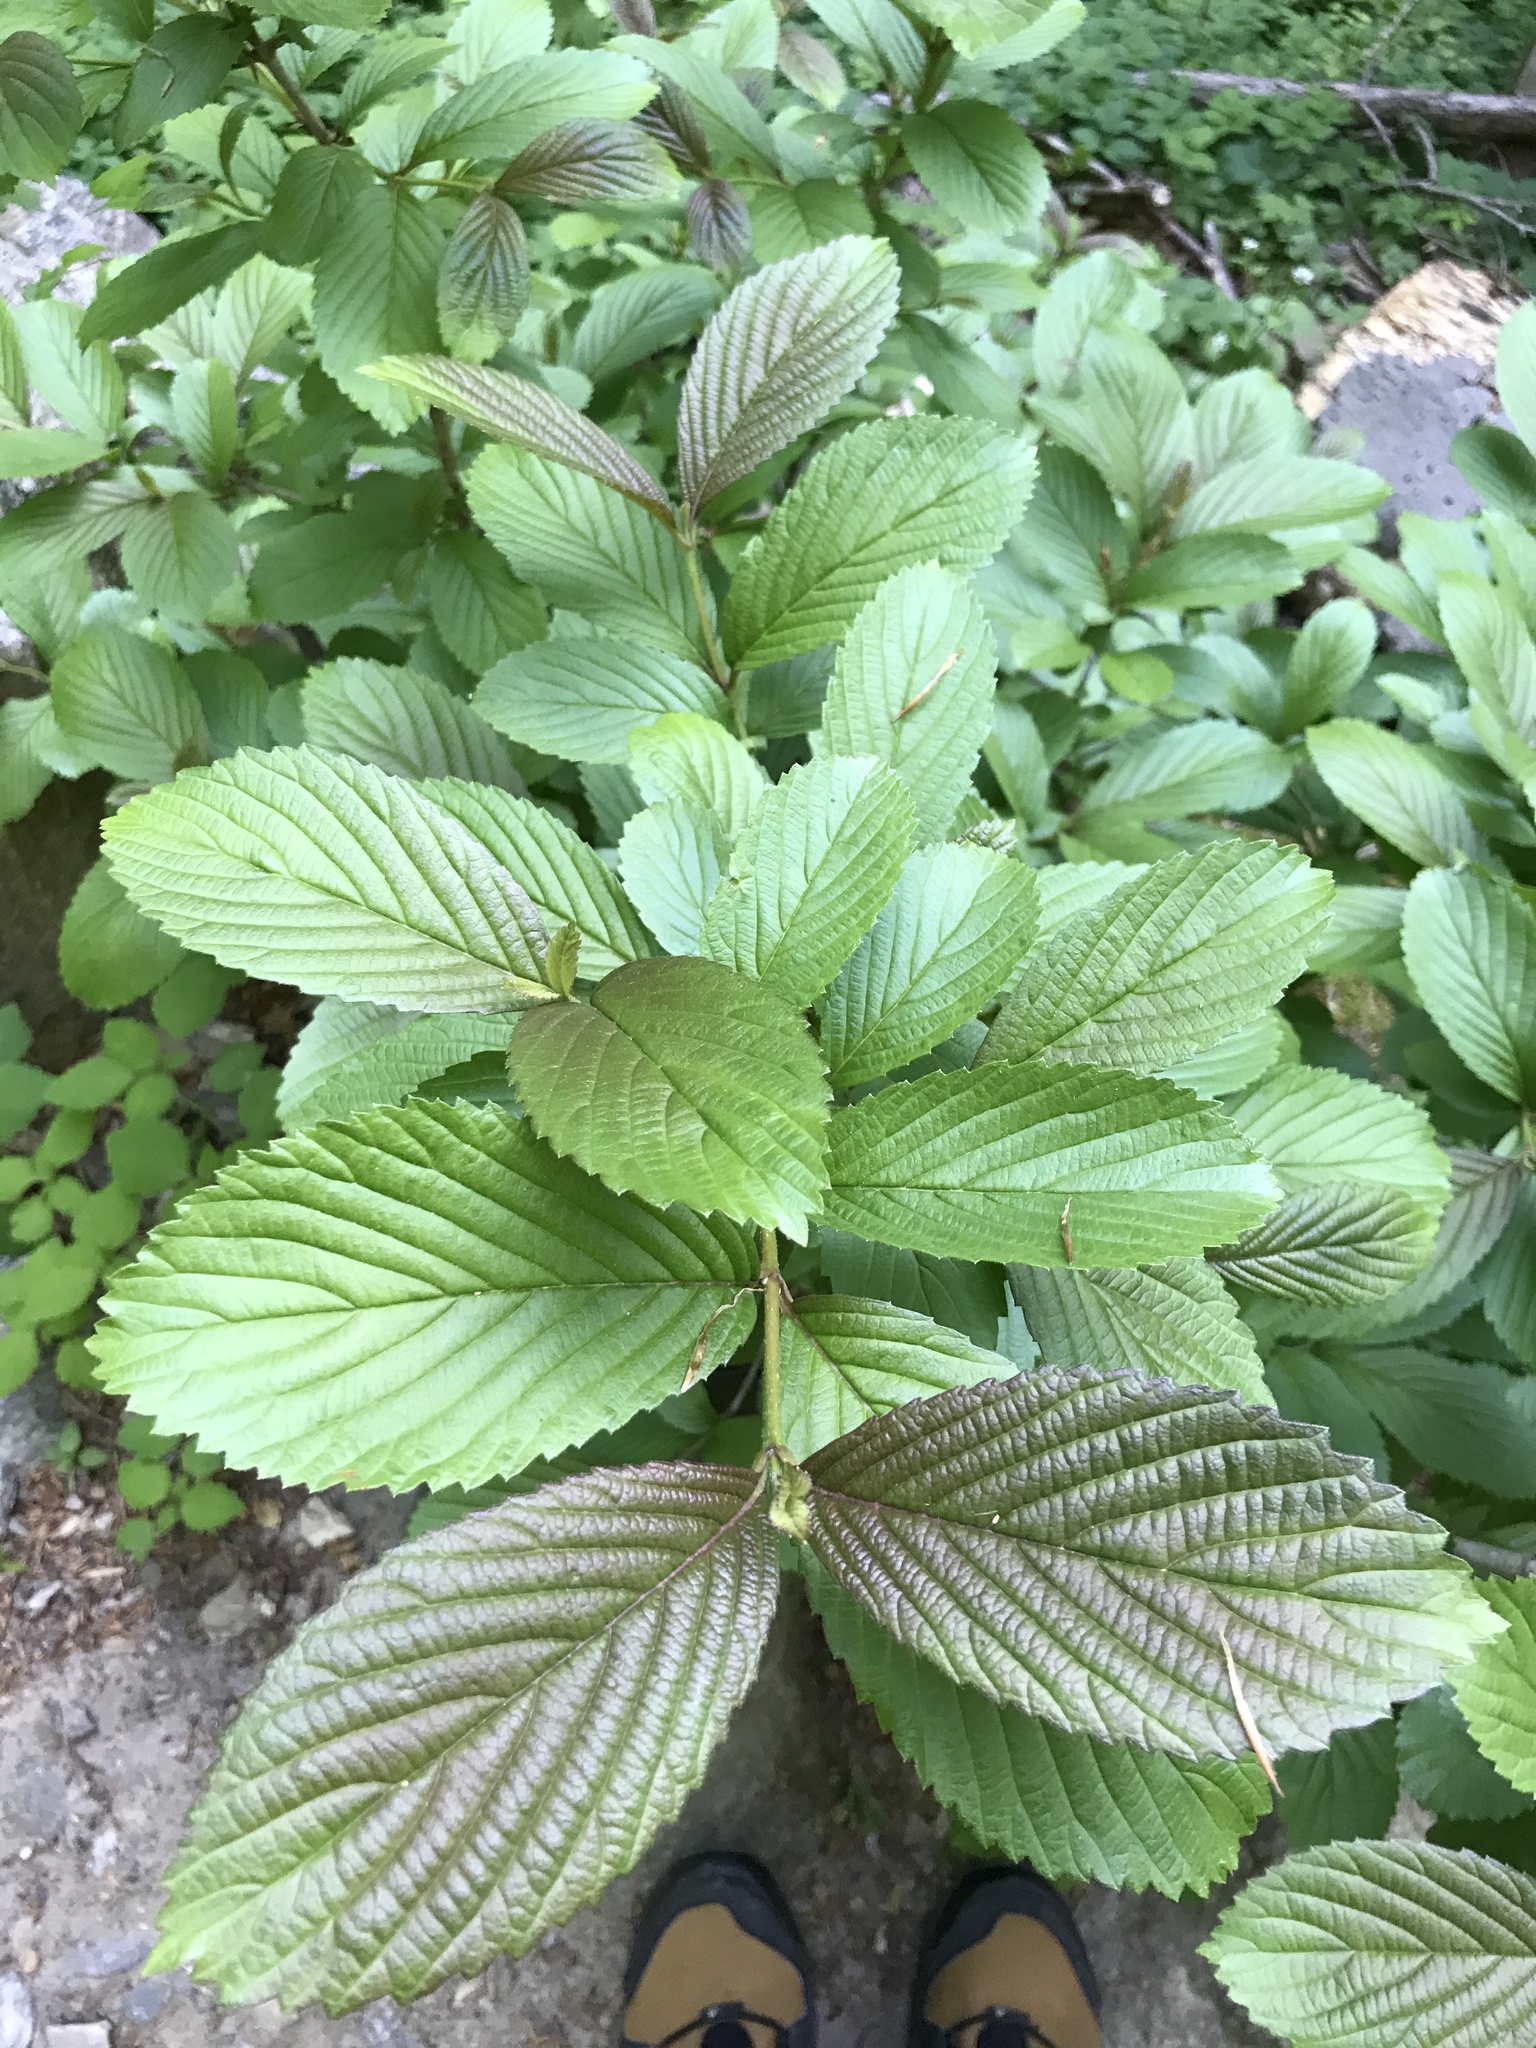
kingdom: Plantae
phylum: Tracheophyta
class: Magnoliopsida
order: Dipsacales
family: Viburnaceae
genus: Viburnum
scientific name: Viburnum sieboldii
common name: Siebold's arrowwood
